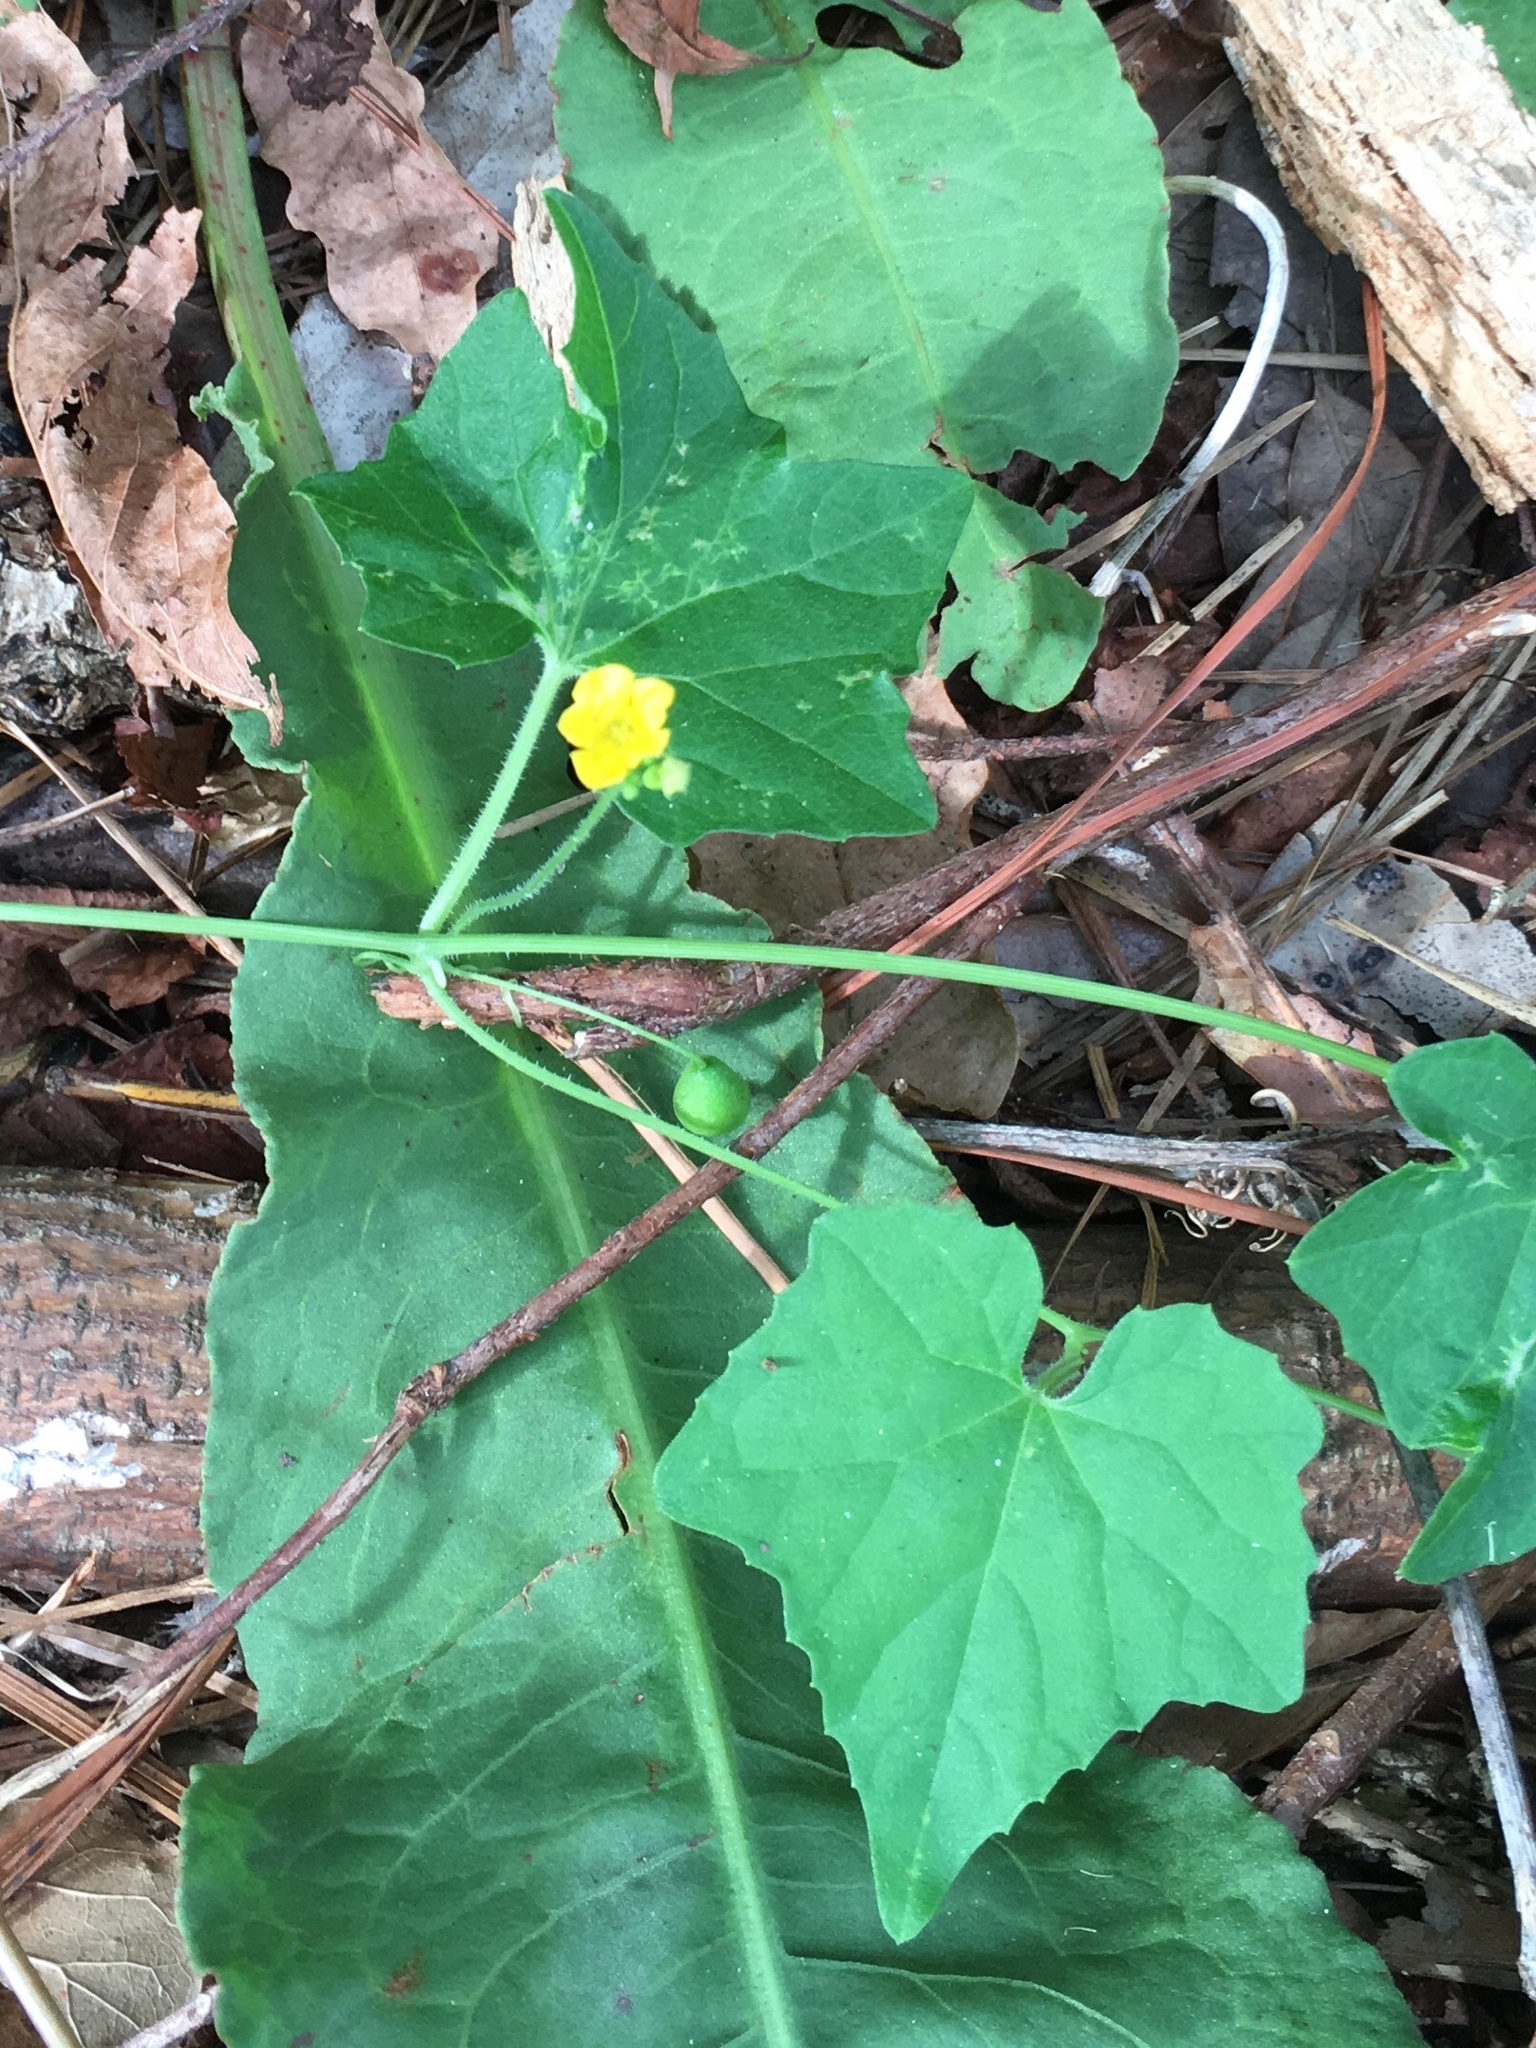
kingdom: Plantae
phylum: Tracheophyta
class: Magnoliopsida
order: Cucurbitales
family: Cucurbitaceae
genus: Melothria
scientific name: Melothria pendula
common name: Creeping-cucumber
